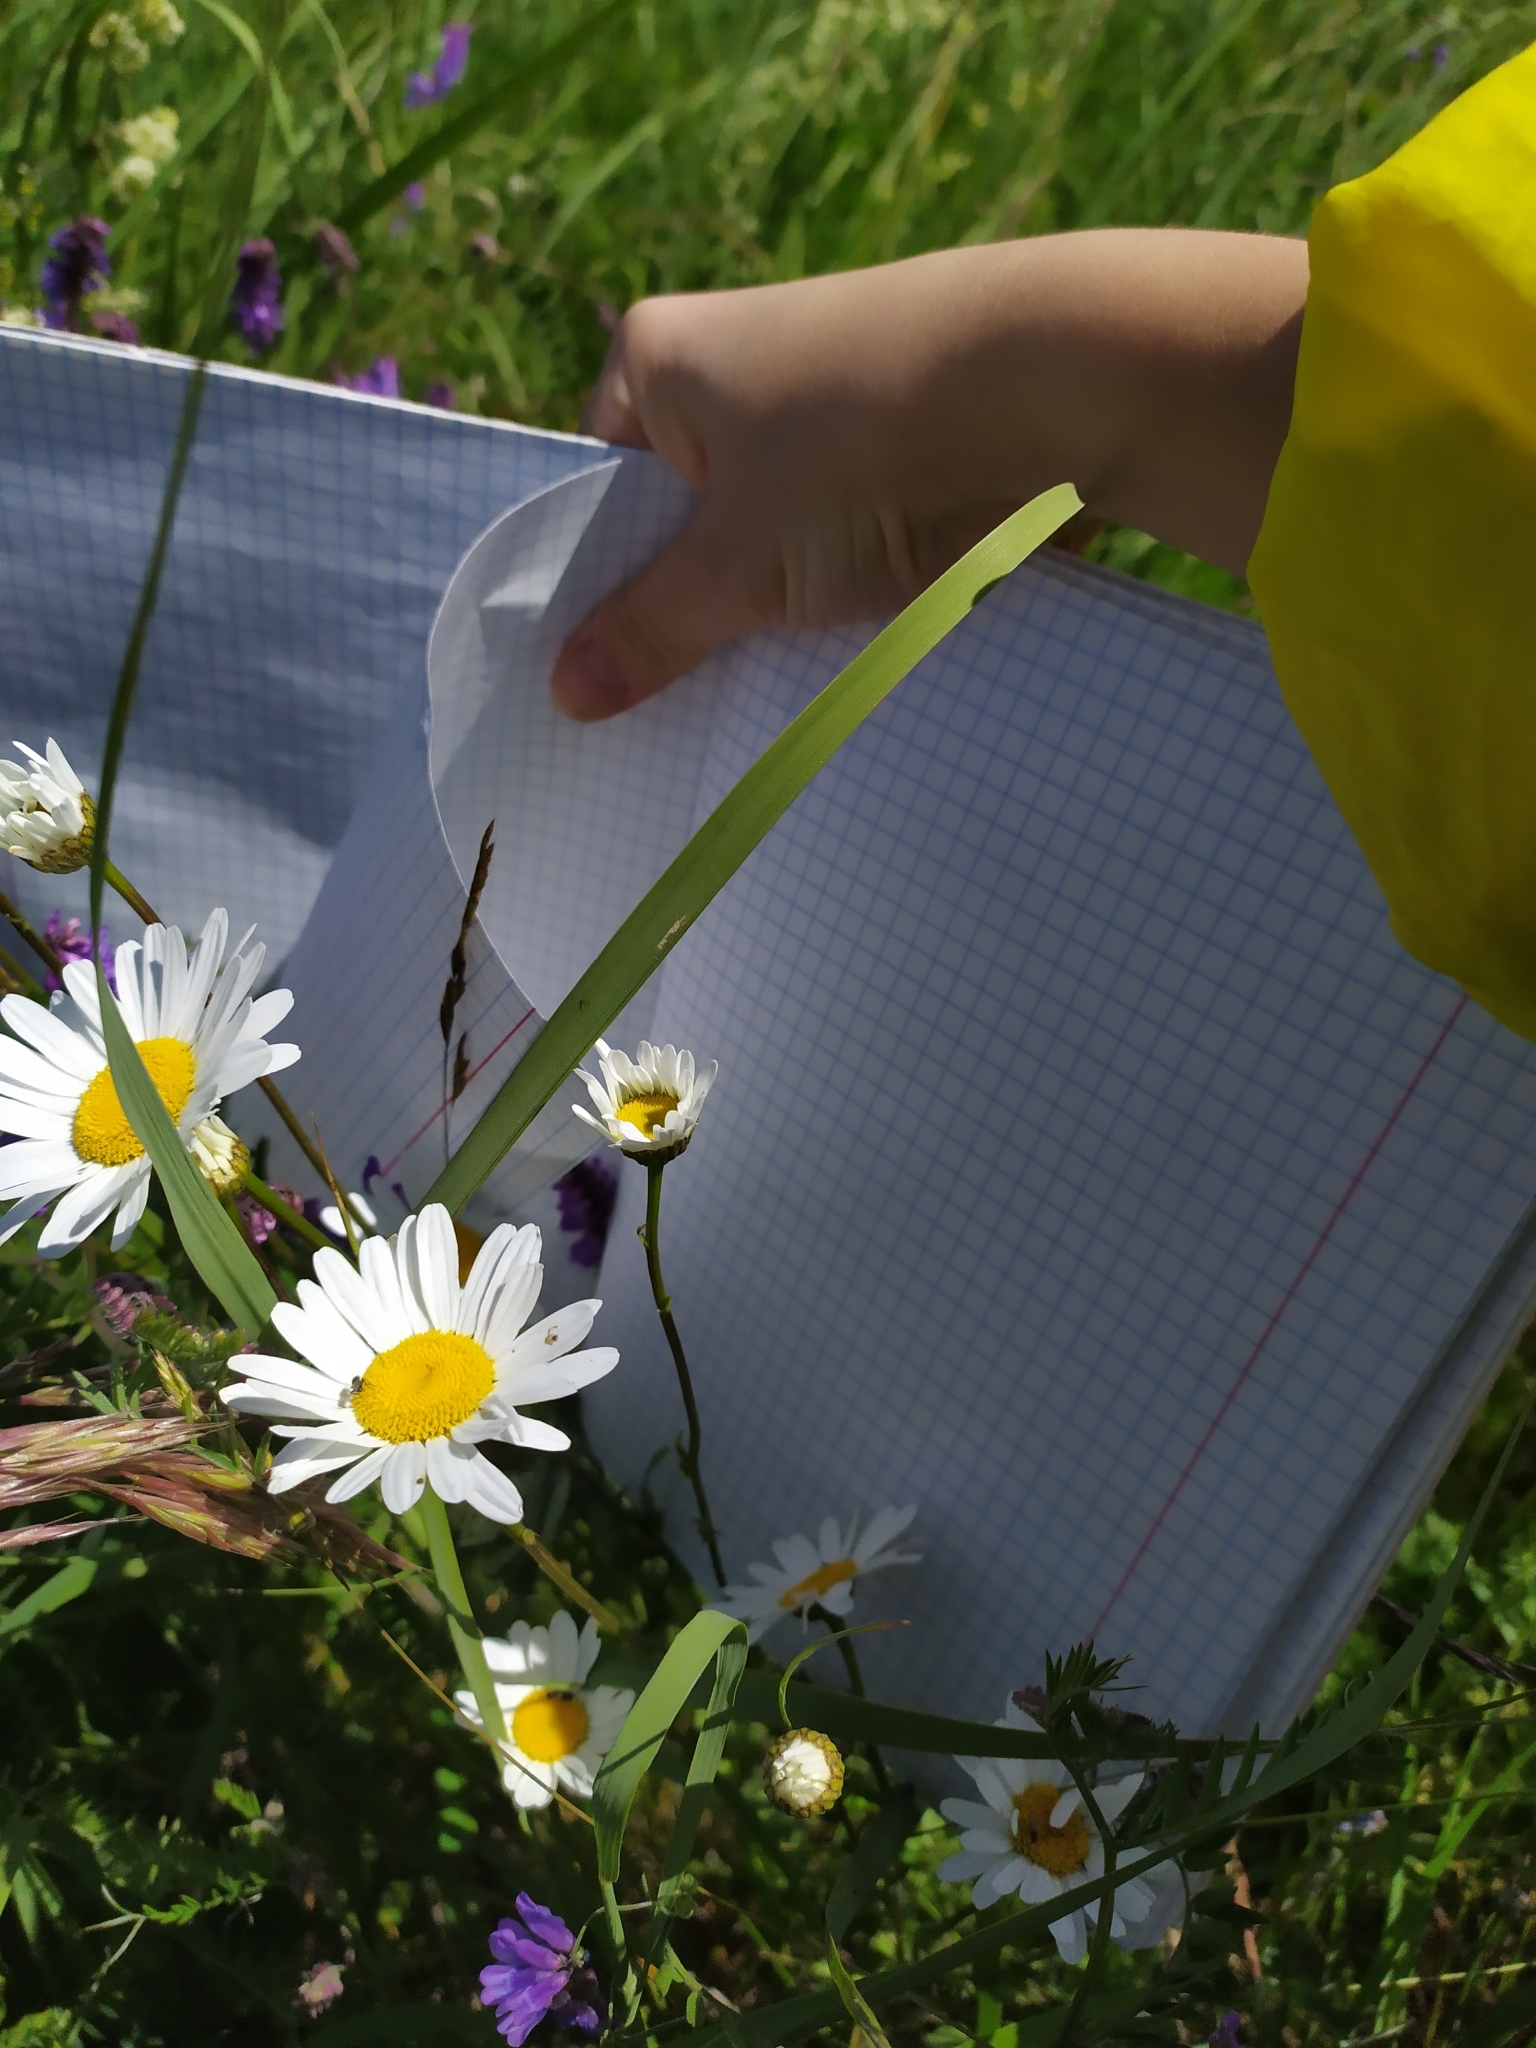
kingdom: Plantae
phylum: Tracheophyta
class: Magnoliopsida
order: Asterales
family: Asteraceae
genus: Leucanthemum
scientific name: Leucanthemum vulgare
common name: Oxeye daisy
